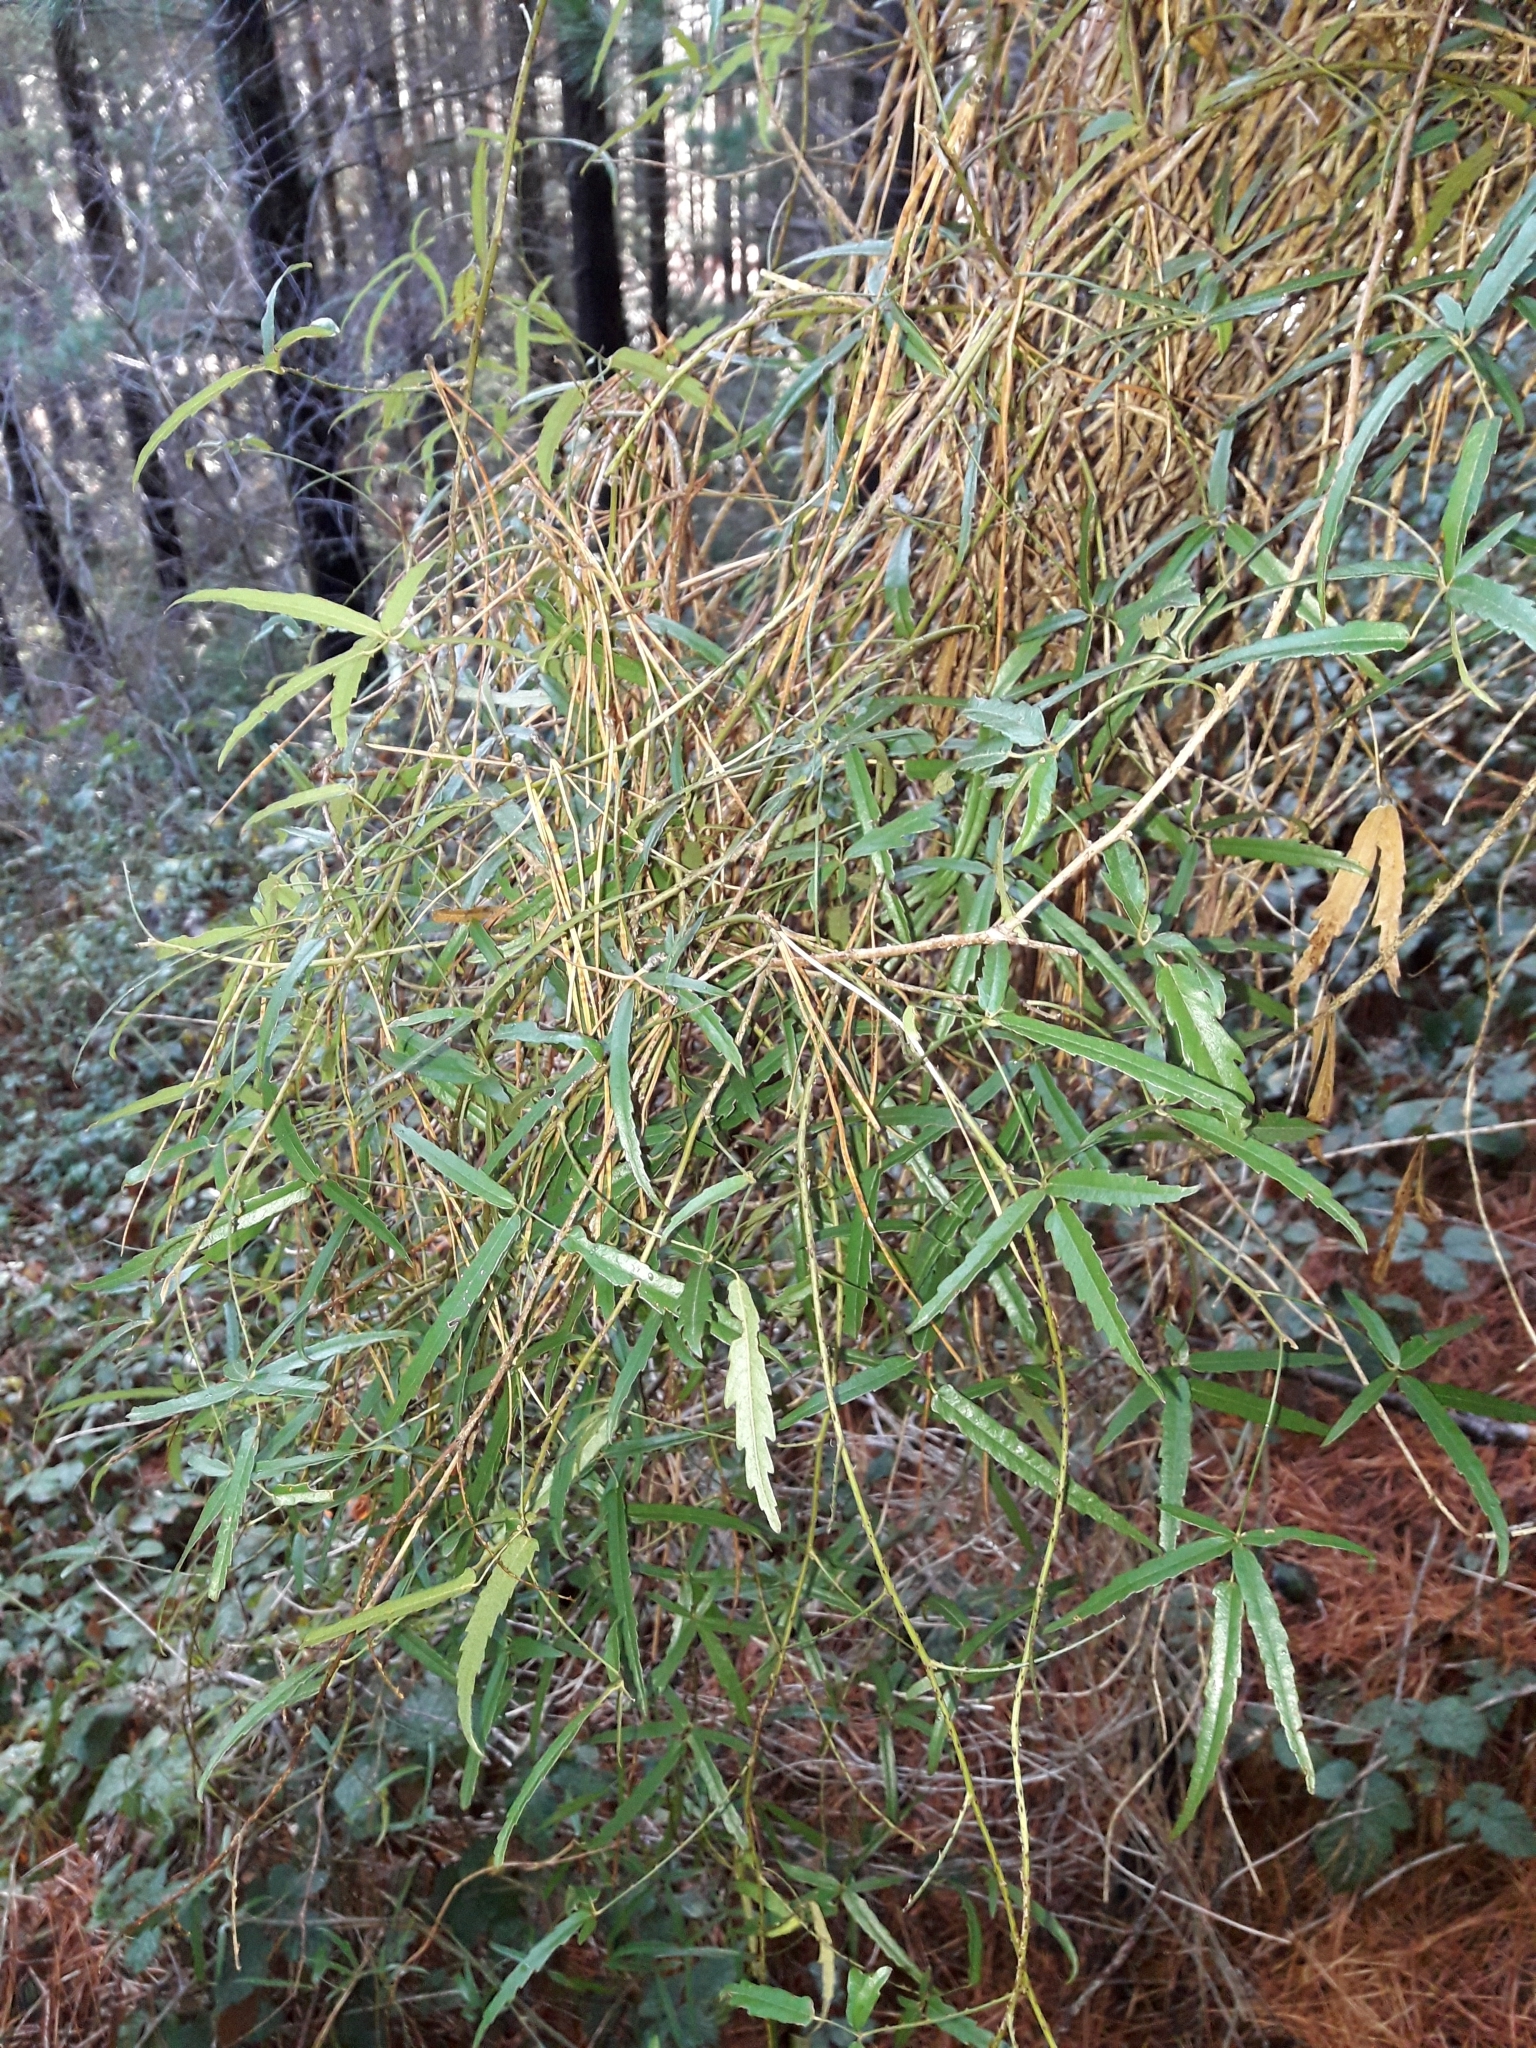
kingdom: Plantae
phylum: Tracheophyta
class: Magnoliopsida
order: Rosales
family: Rosaceae
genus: Rubus
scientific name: Rubus schmidelioides
